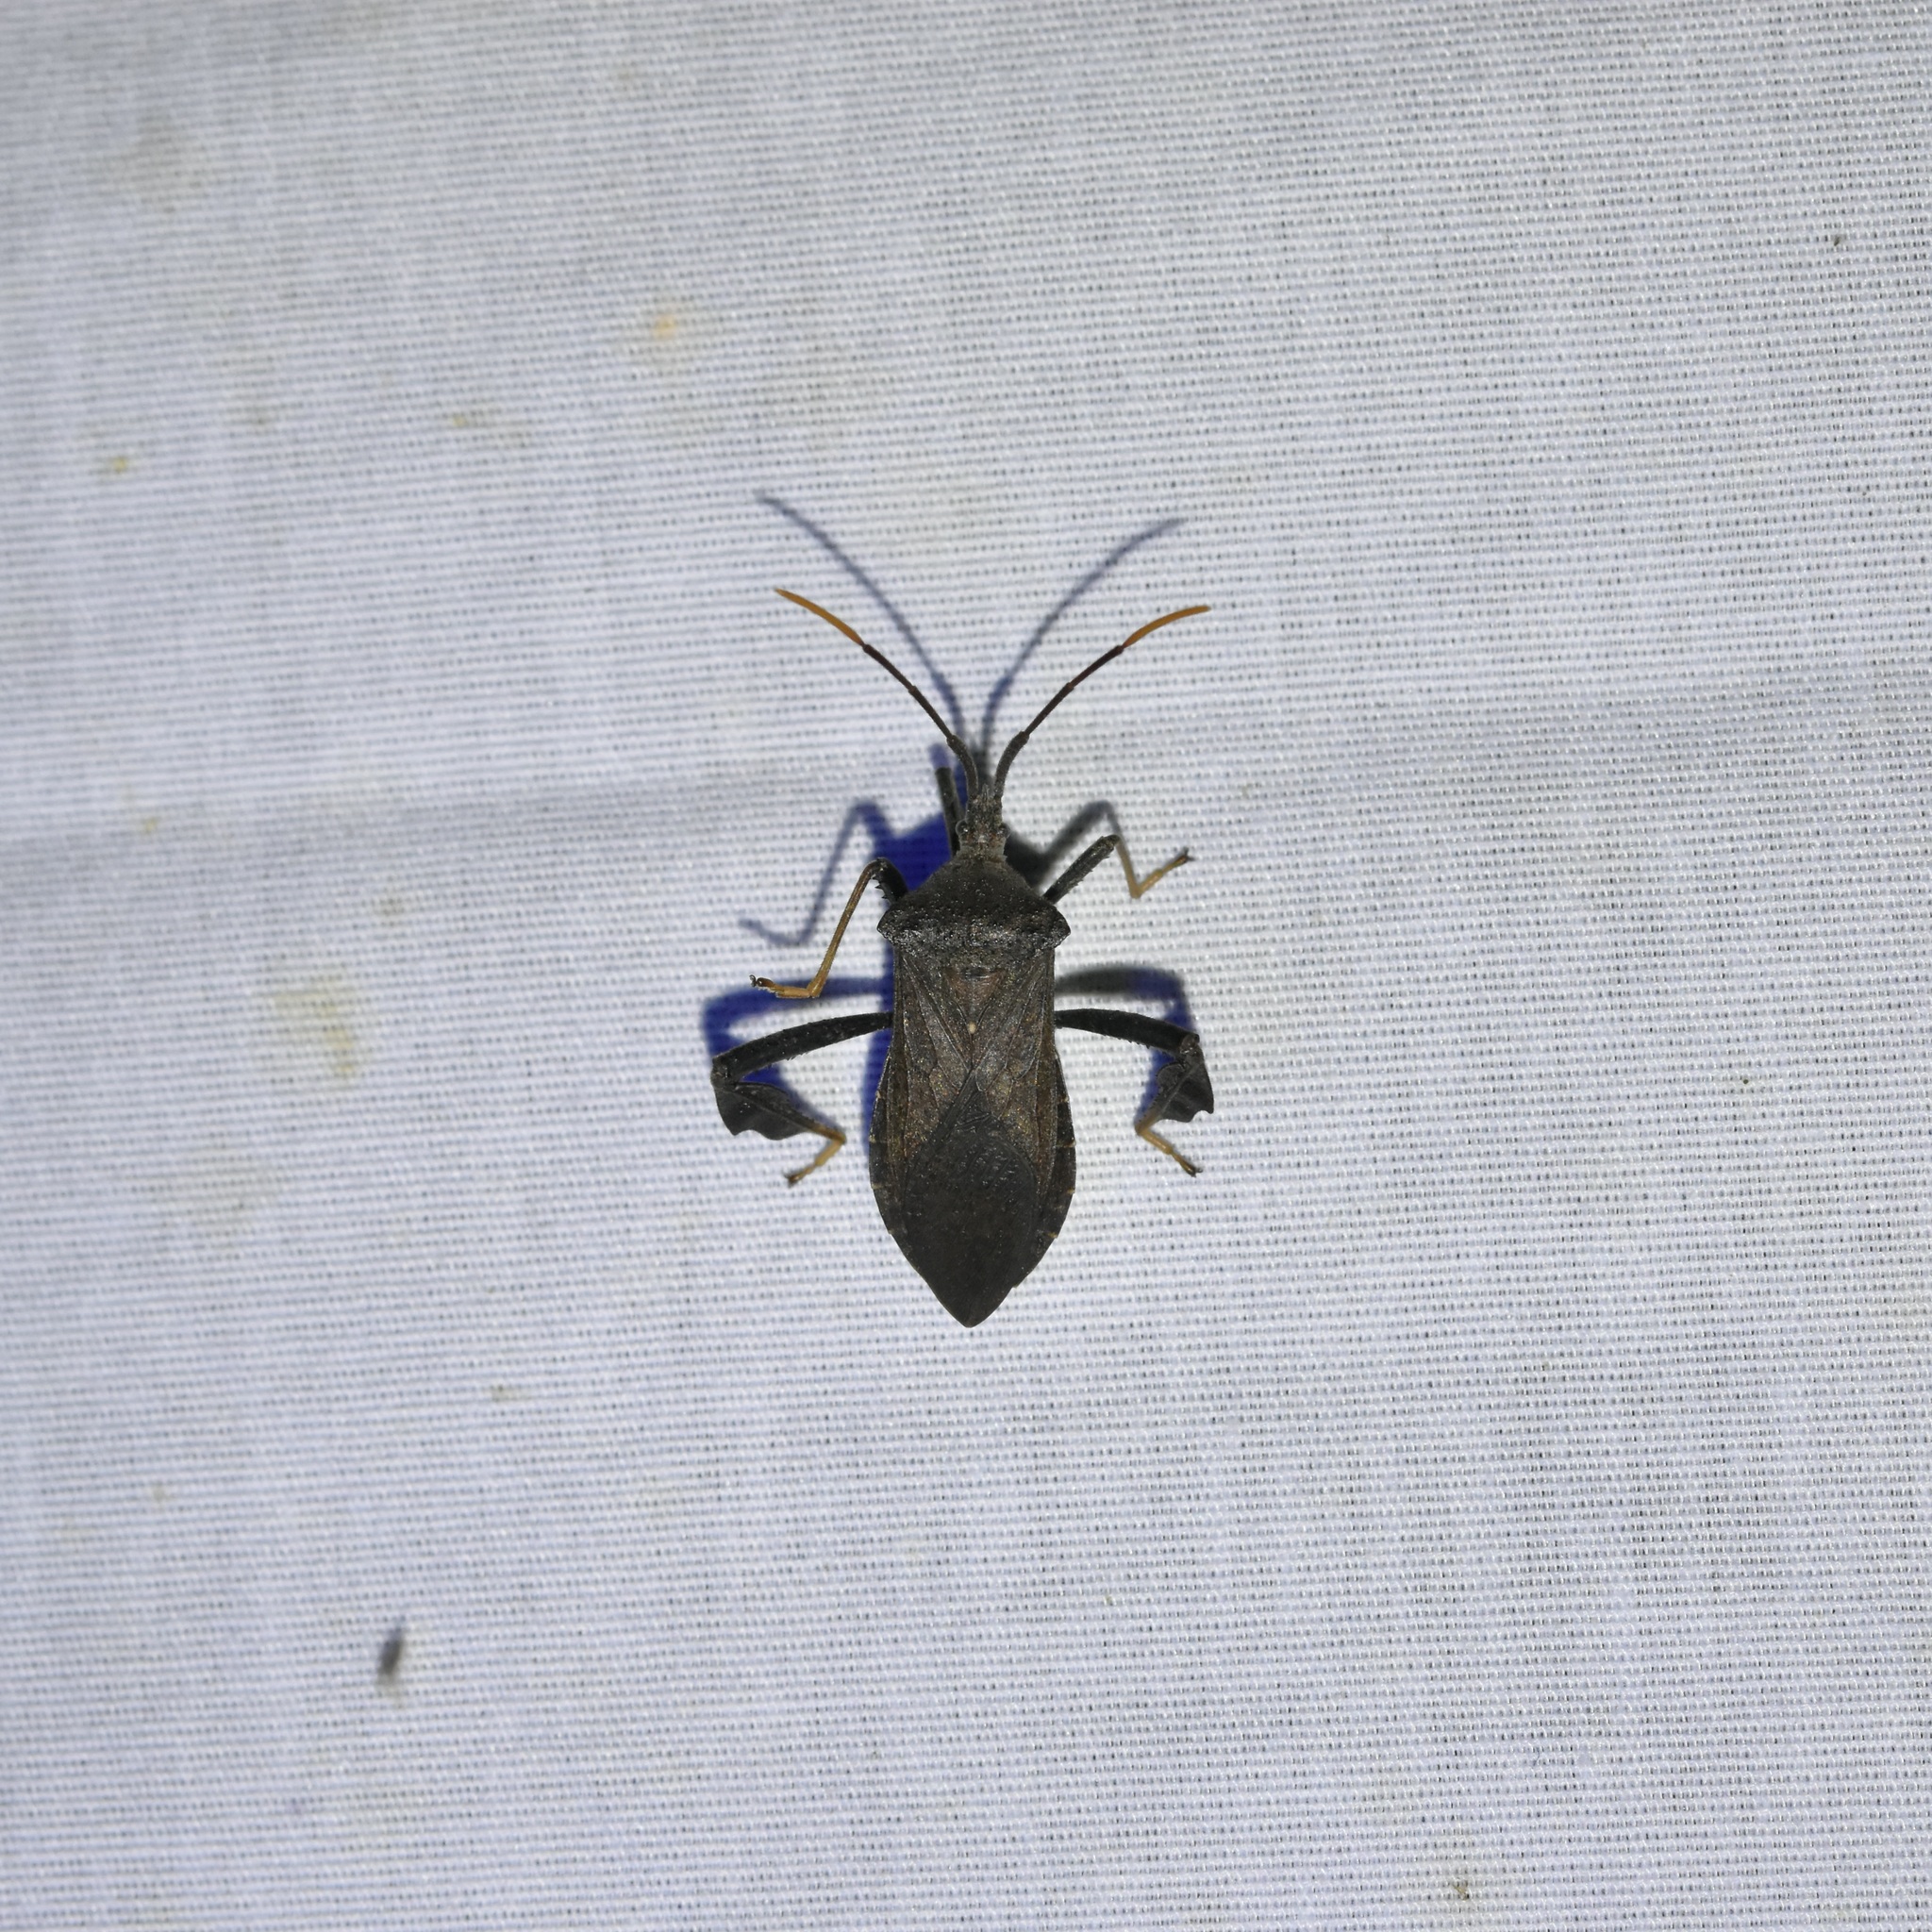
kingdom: Animalia
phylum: Arthropoda
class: Insecta
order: Hemiptera
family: Coreidae
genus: Acanthocephala
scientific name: Acanthocephala terminalis
